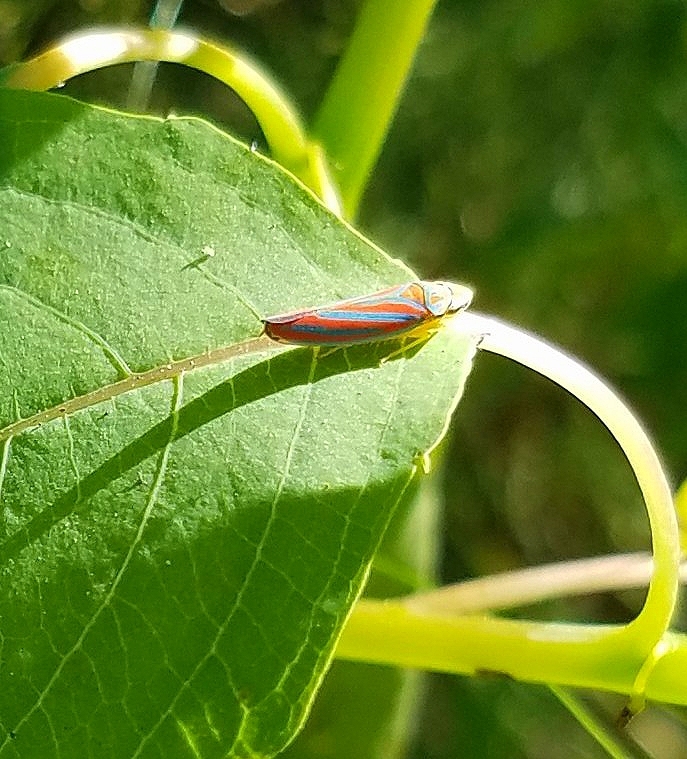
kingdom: Animalia
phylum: Arthropoda
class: Insecta
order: Hemiptera
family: Cicadellidae
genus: Graphocephala
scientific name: Graphocephala coccinea
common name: Candy-striped leafhopper
